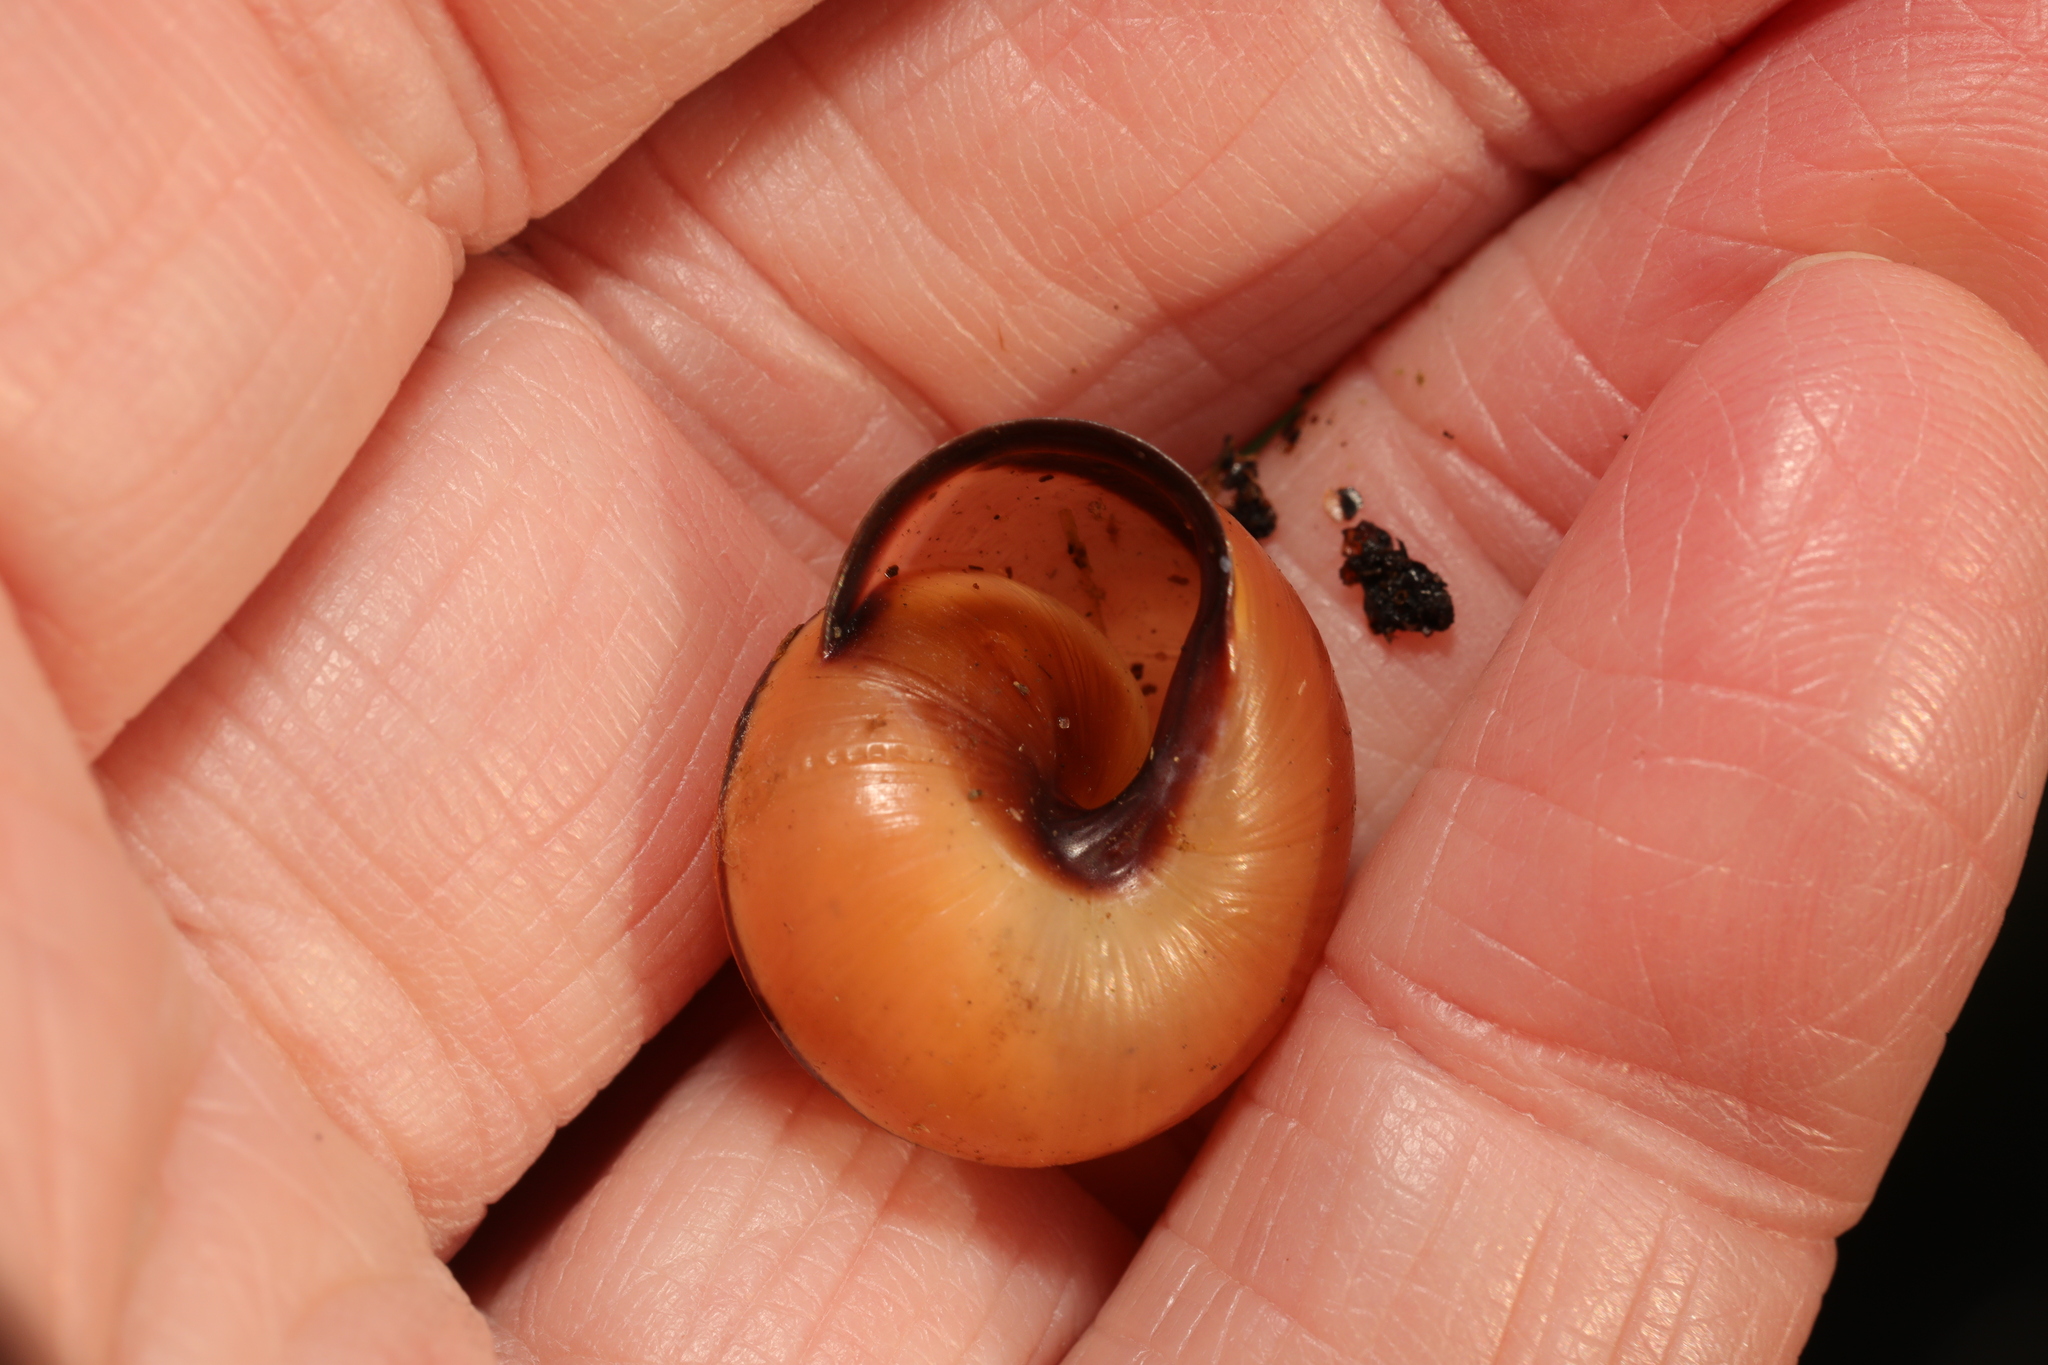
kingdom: Animalia
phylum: Mollusca
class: Gastropoda
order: Stylommatophora
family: Helicidae
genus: Cepaea
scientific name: Cepaea nemoralis
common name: Grovesnail
